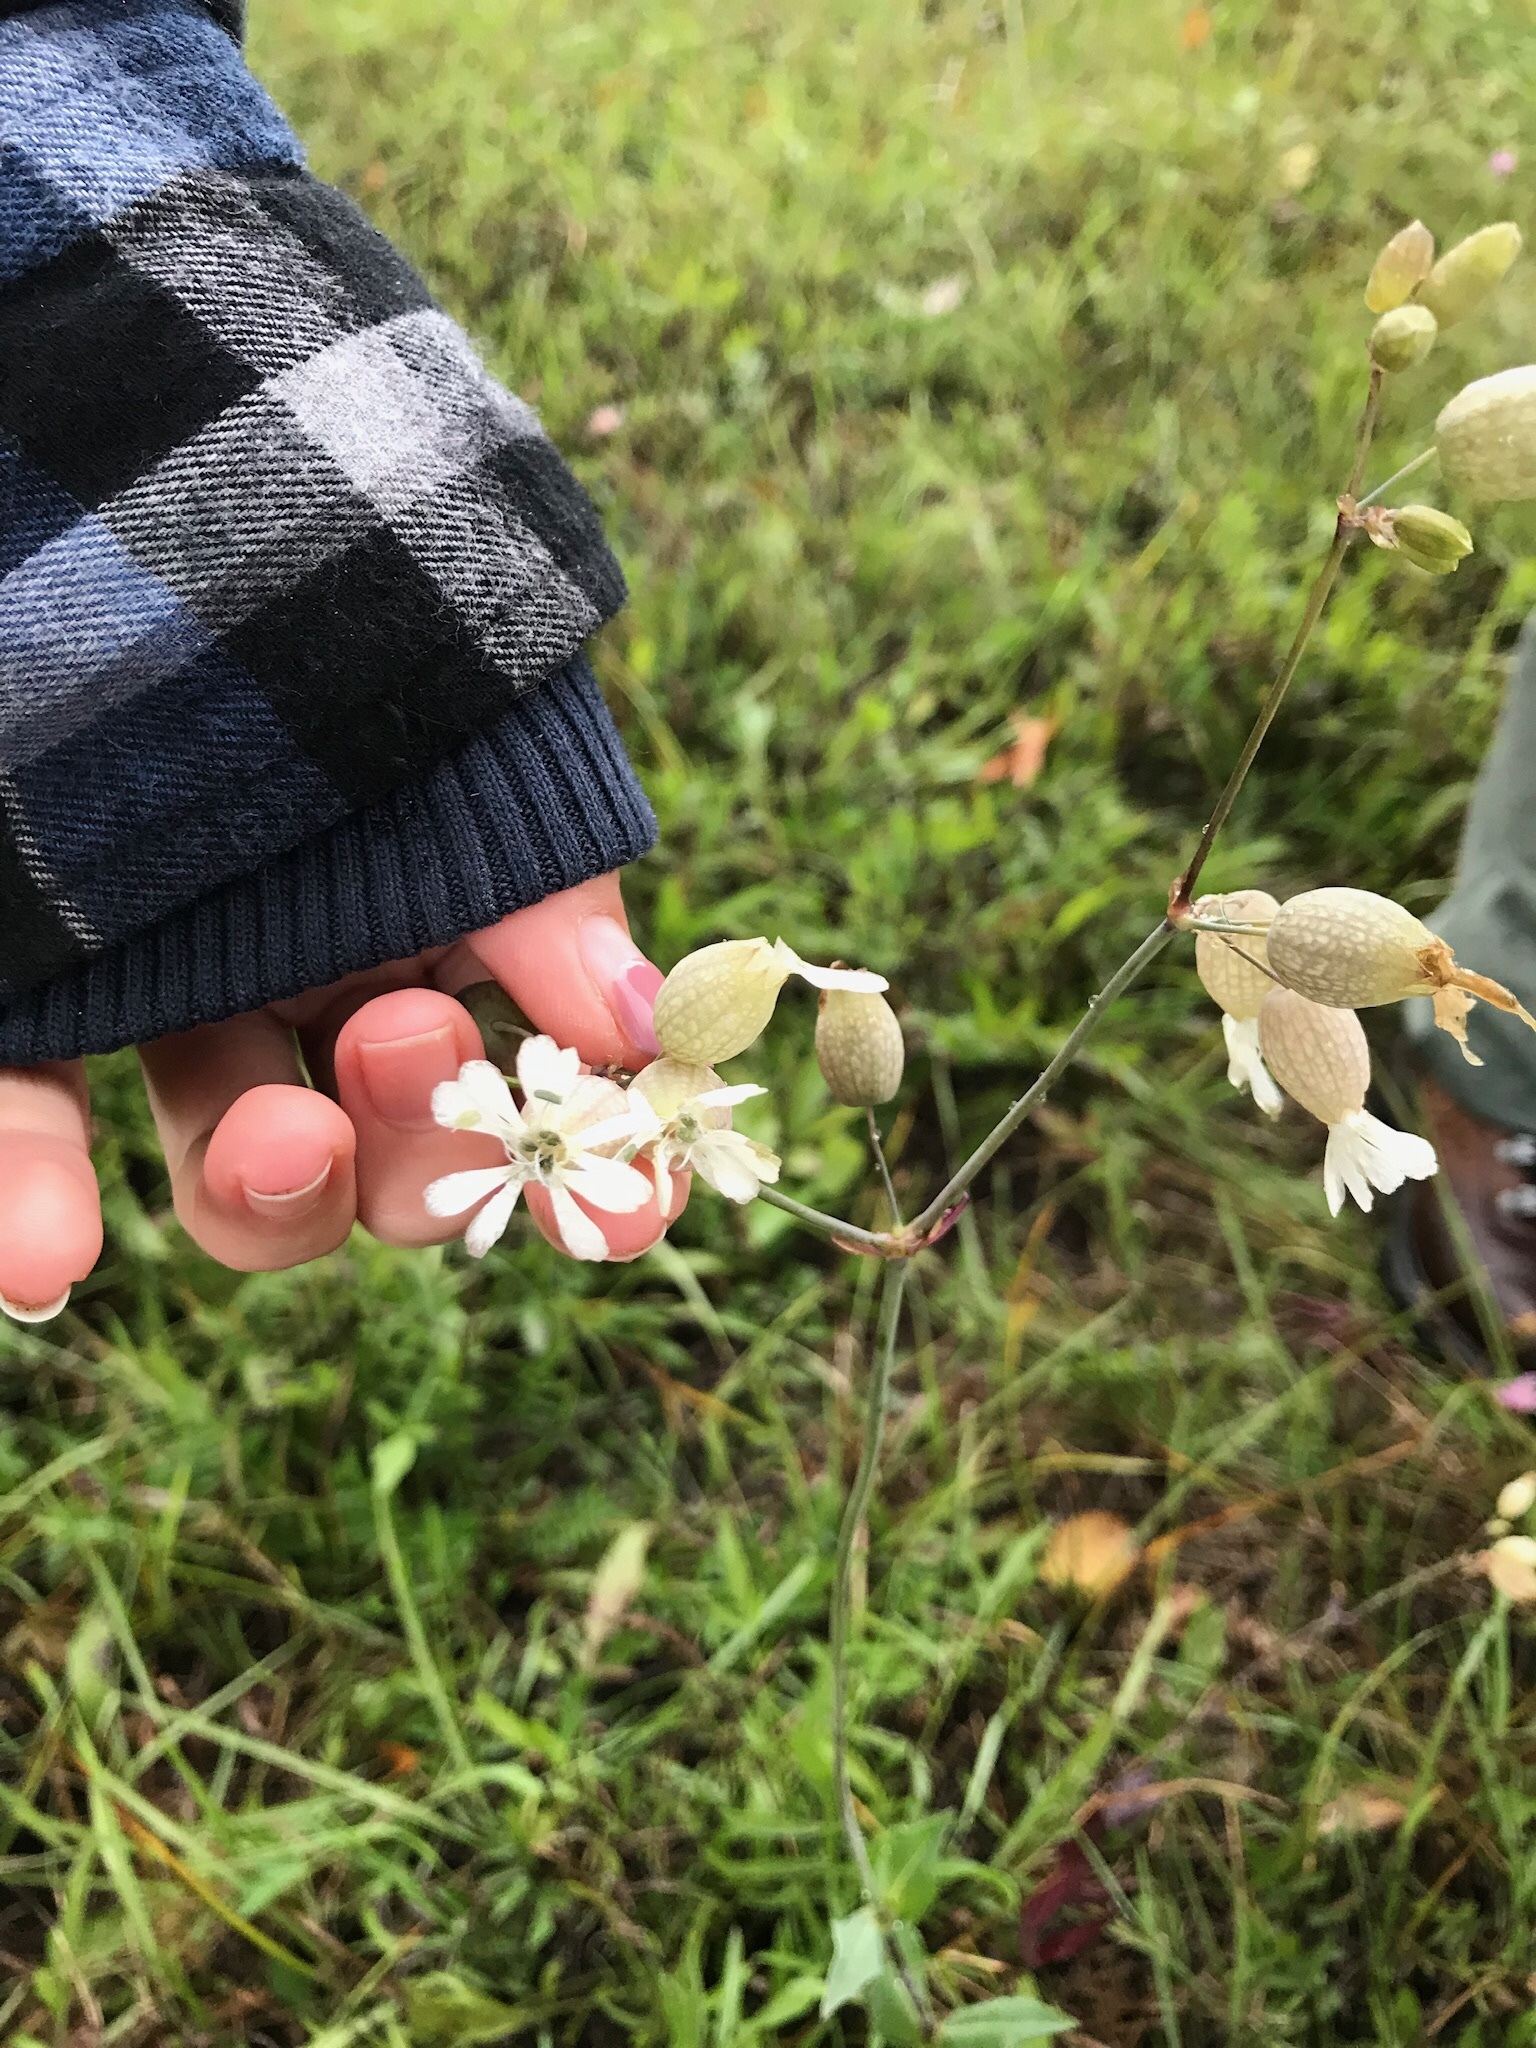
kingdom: Plantae
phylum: Tracheophyta
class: Magnoliopsida
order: Caryophyllales
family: Caryophyllaceae
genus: Silene
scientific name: Silene vulgaris
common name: Bladder campion
